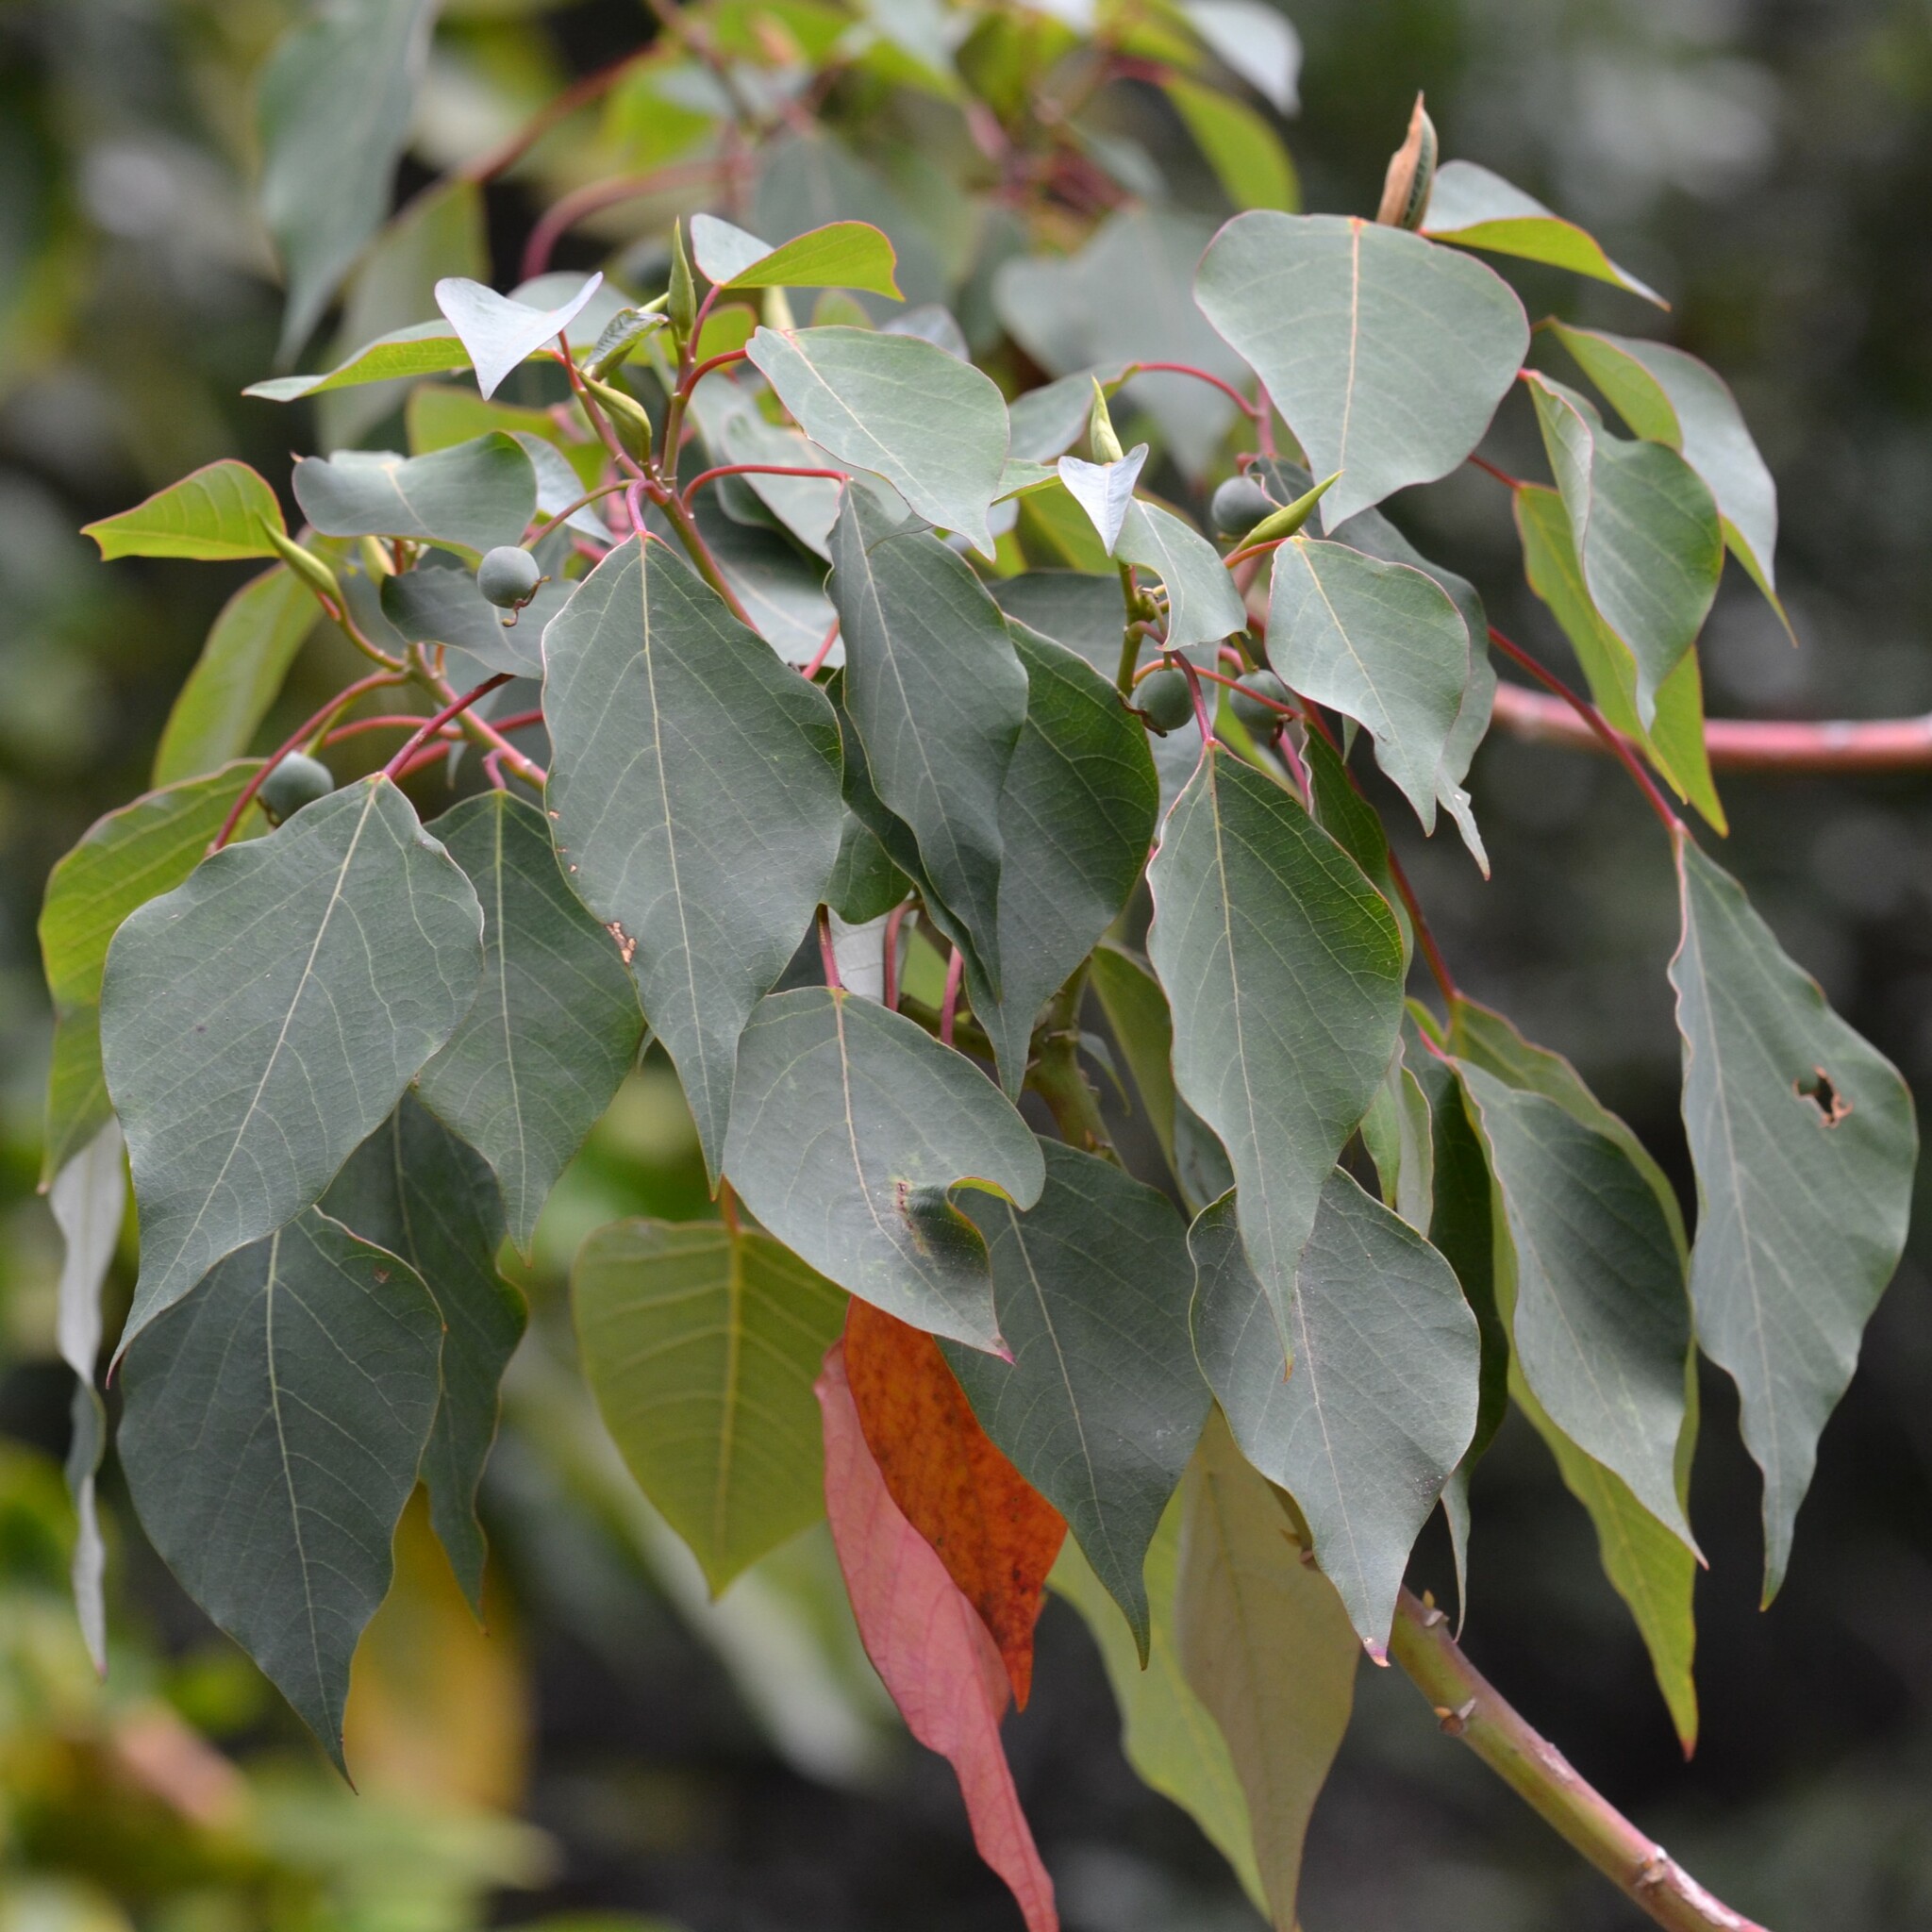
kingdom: Plantae
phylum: Tracheophyta
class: Magnoliopsida
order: Malpighiales
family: Euphorbiaceae
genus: Homalanthus
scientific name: Homalanthus populifolius
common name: Queensland poplar
